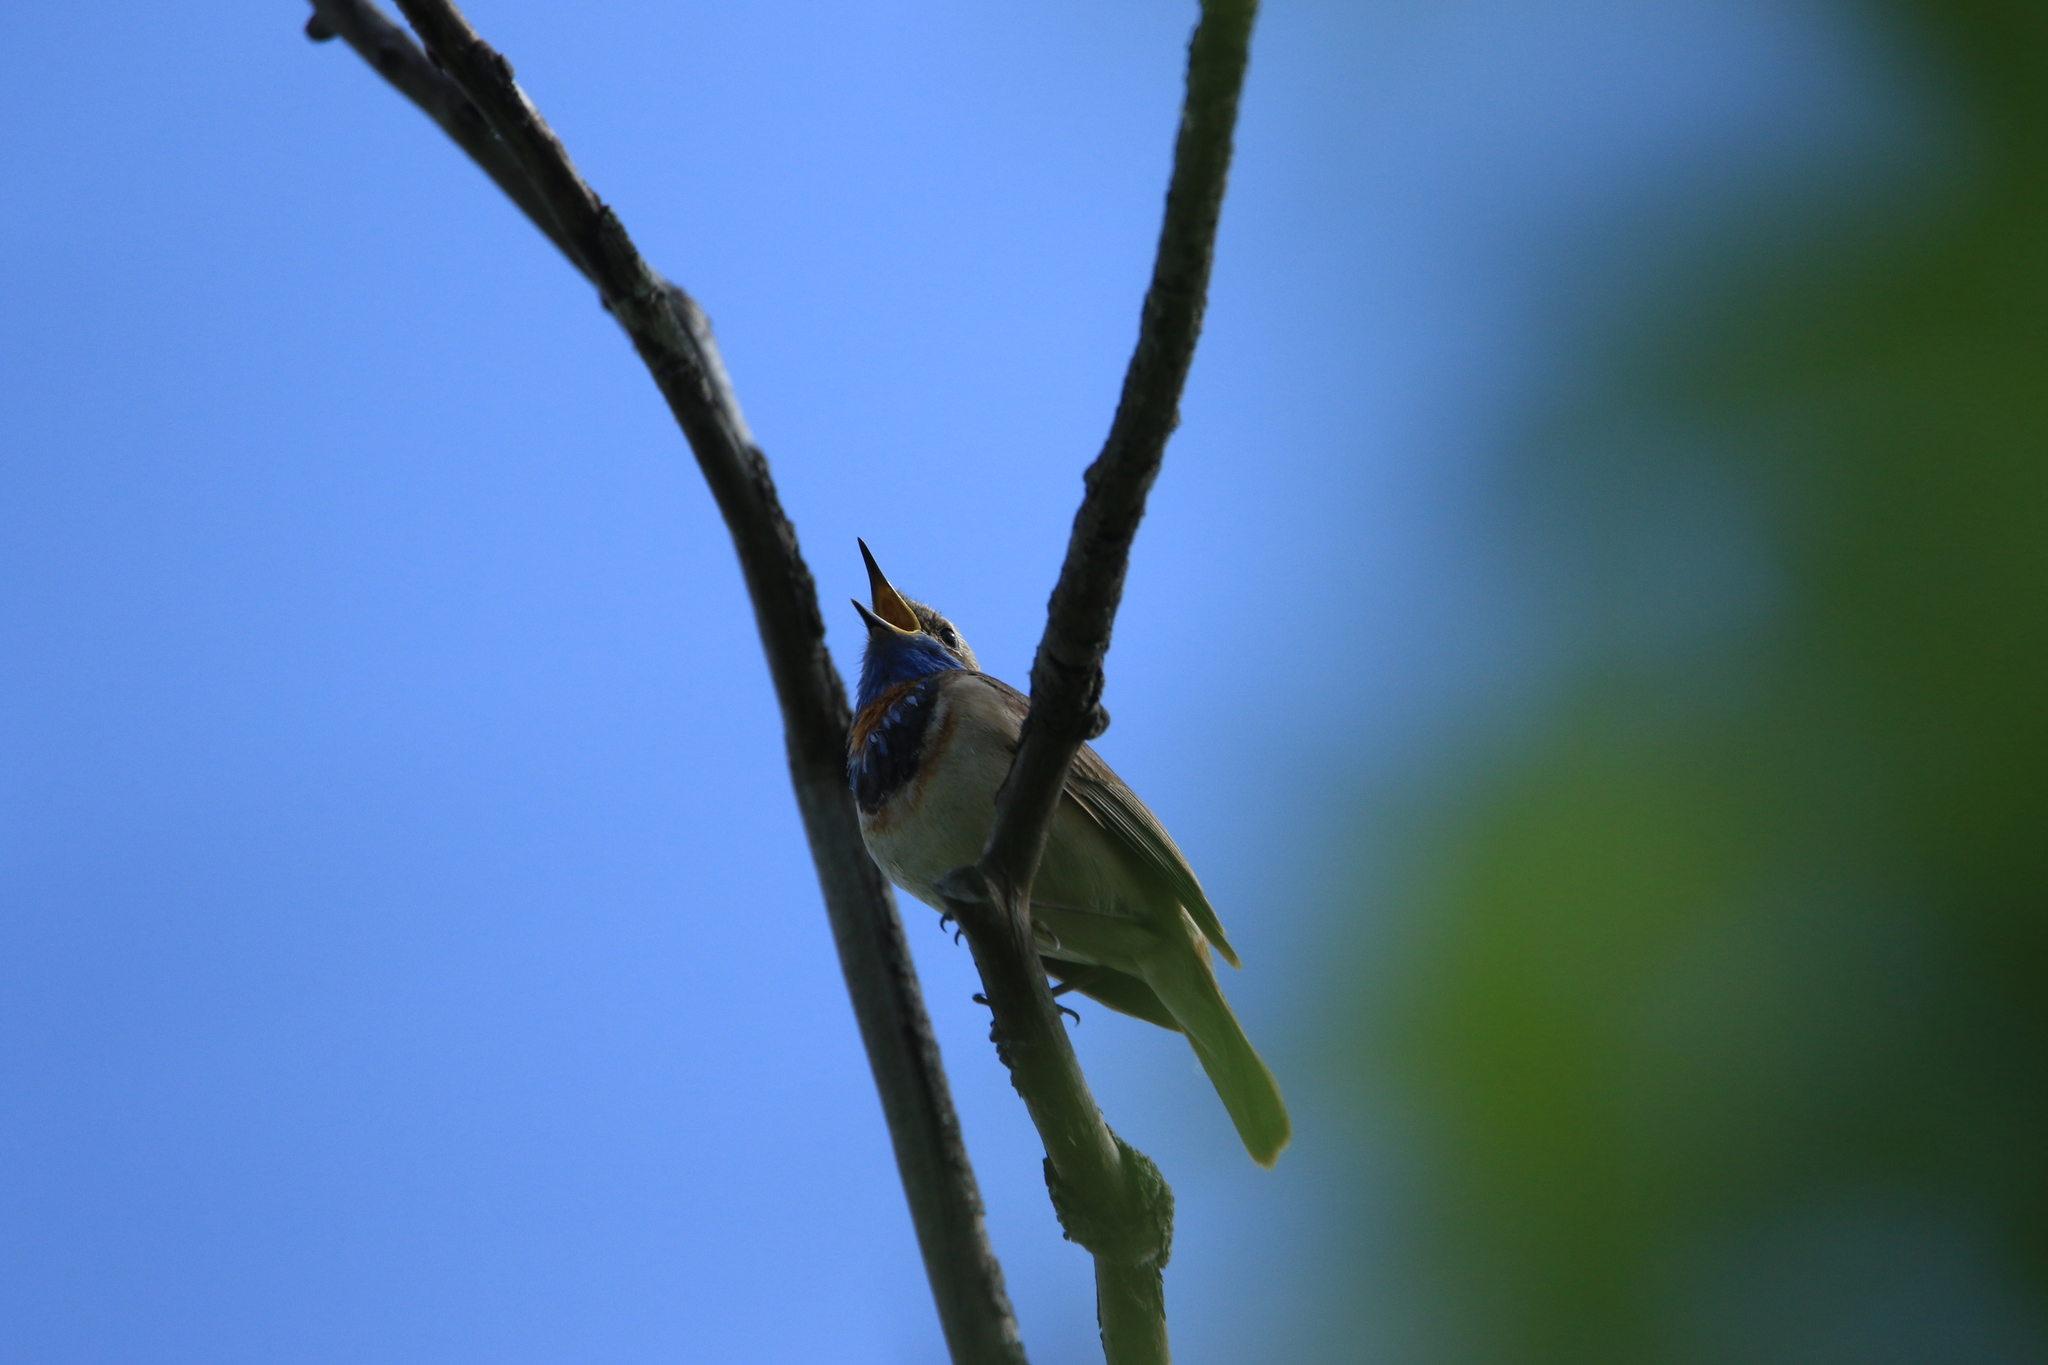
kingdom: Animalia
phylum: Chordata
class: Aves
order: Passeriformes
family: Muscicapidae
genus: Luscinia
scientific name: Luscinia svecica
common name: Bluethroat
